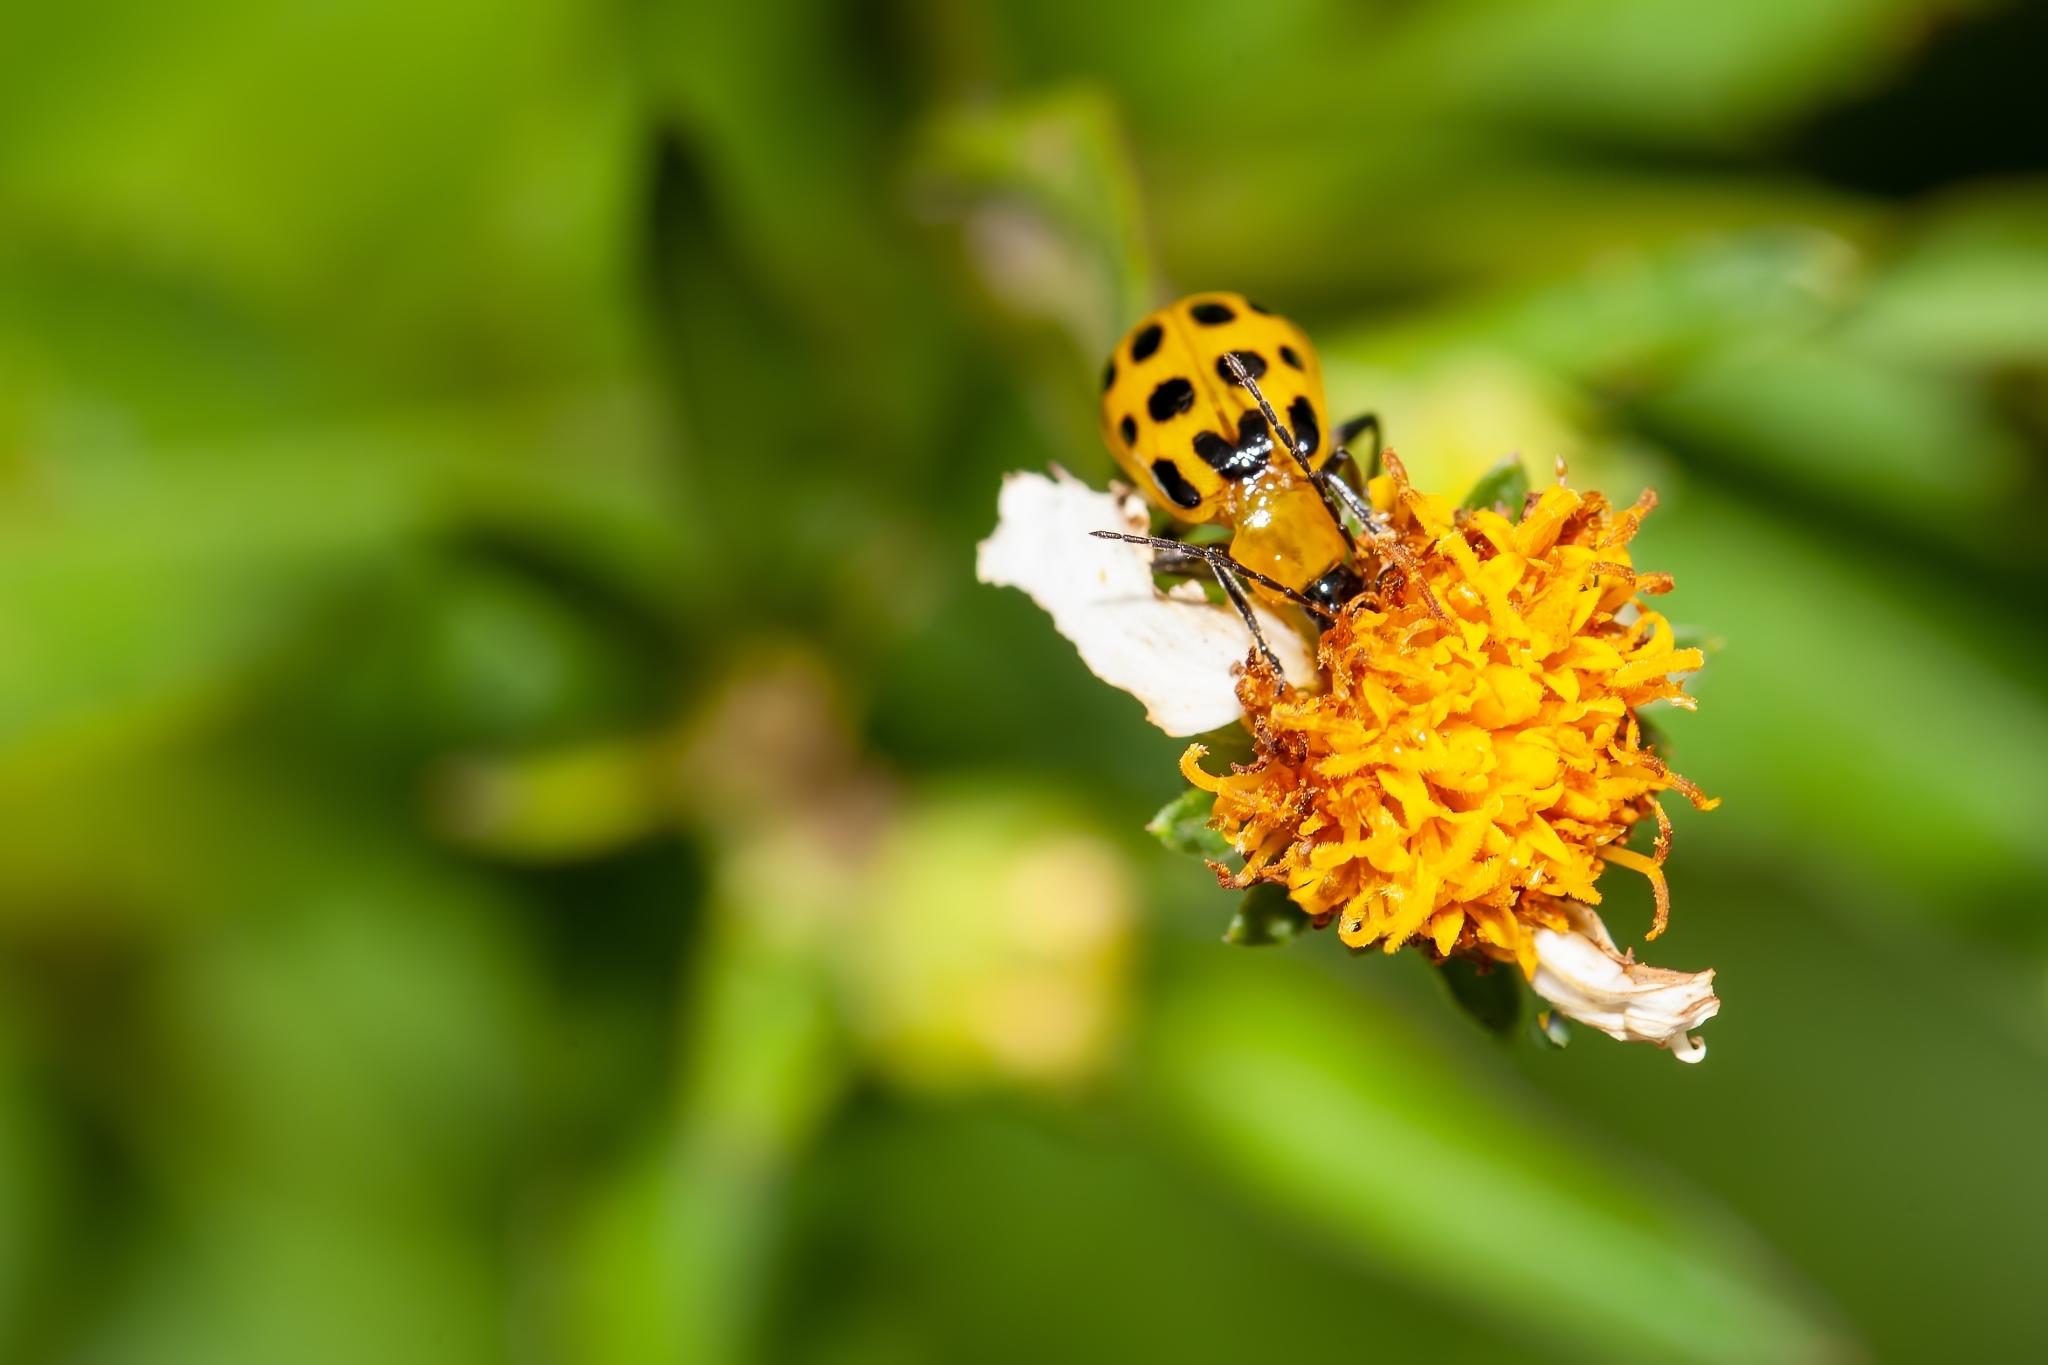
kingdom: Animalia
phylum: Arthropoda
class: Insecta
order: Coleoptera
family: Chrysomelidae
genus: Diabrotica
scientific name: Diabrotica undecimpunctata
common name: Spotted cucumber beetle
